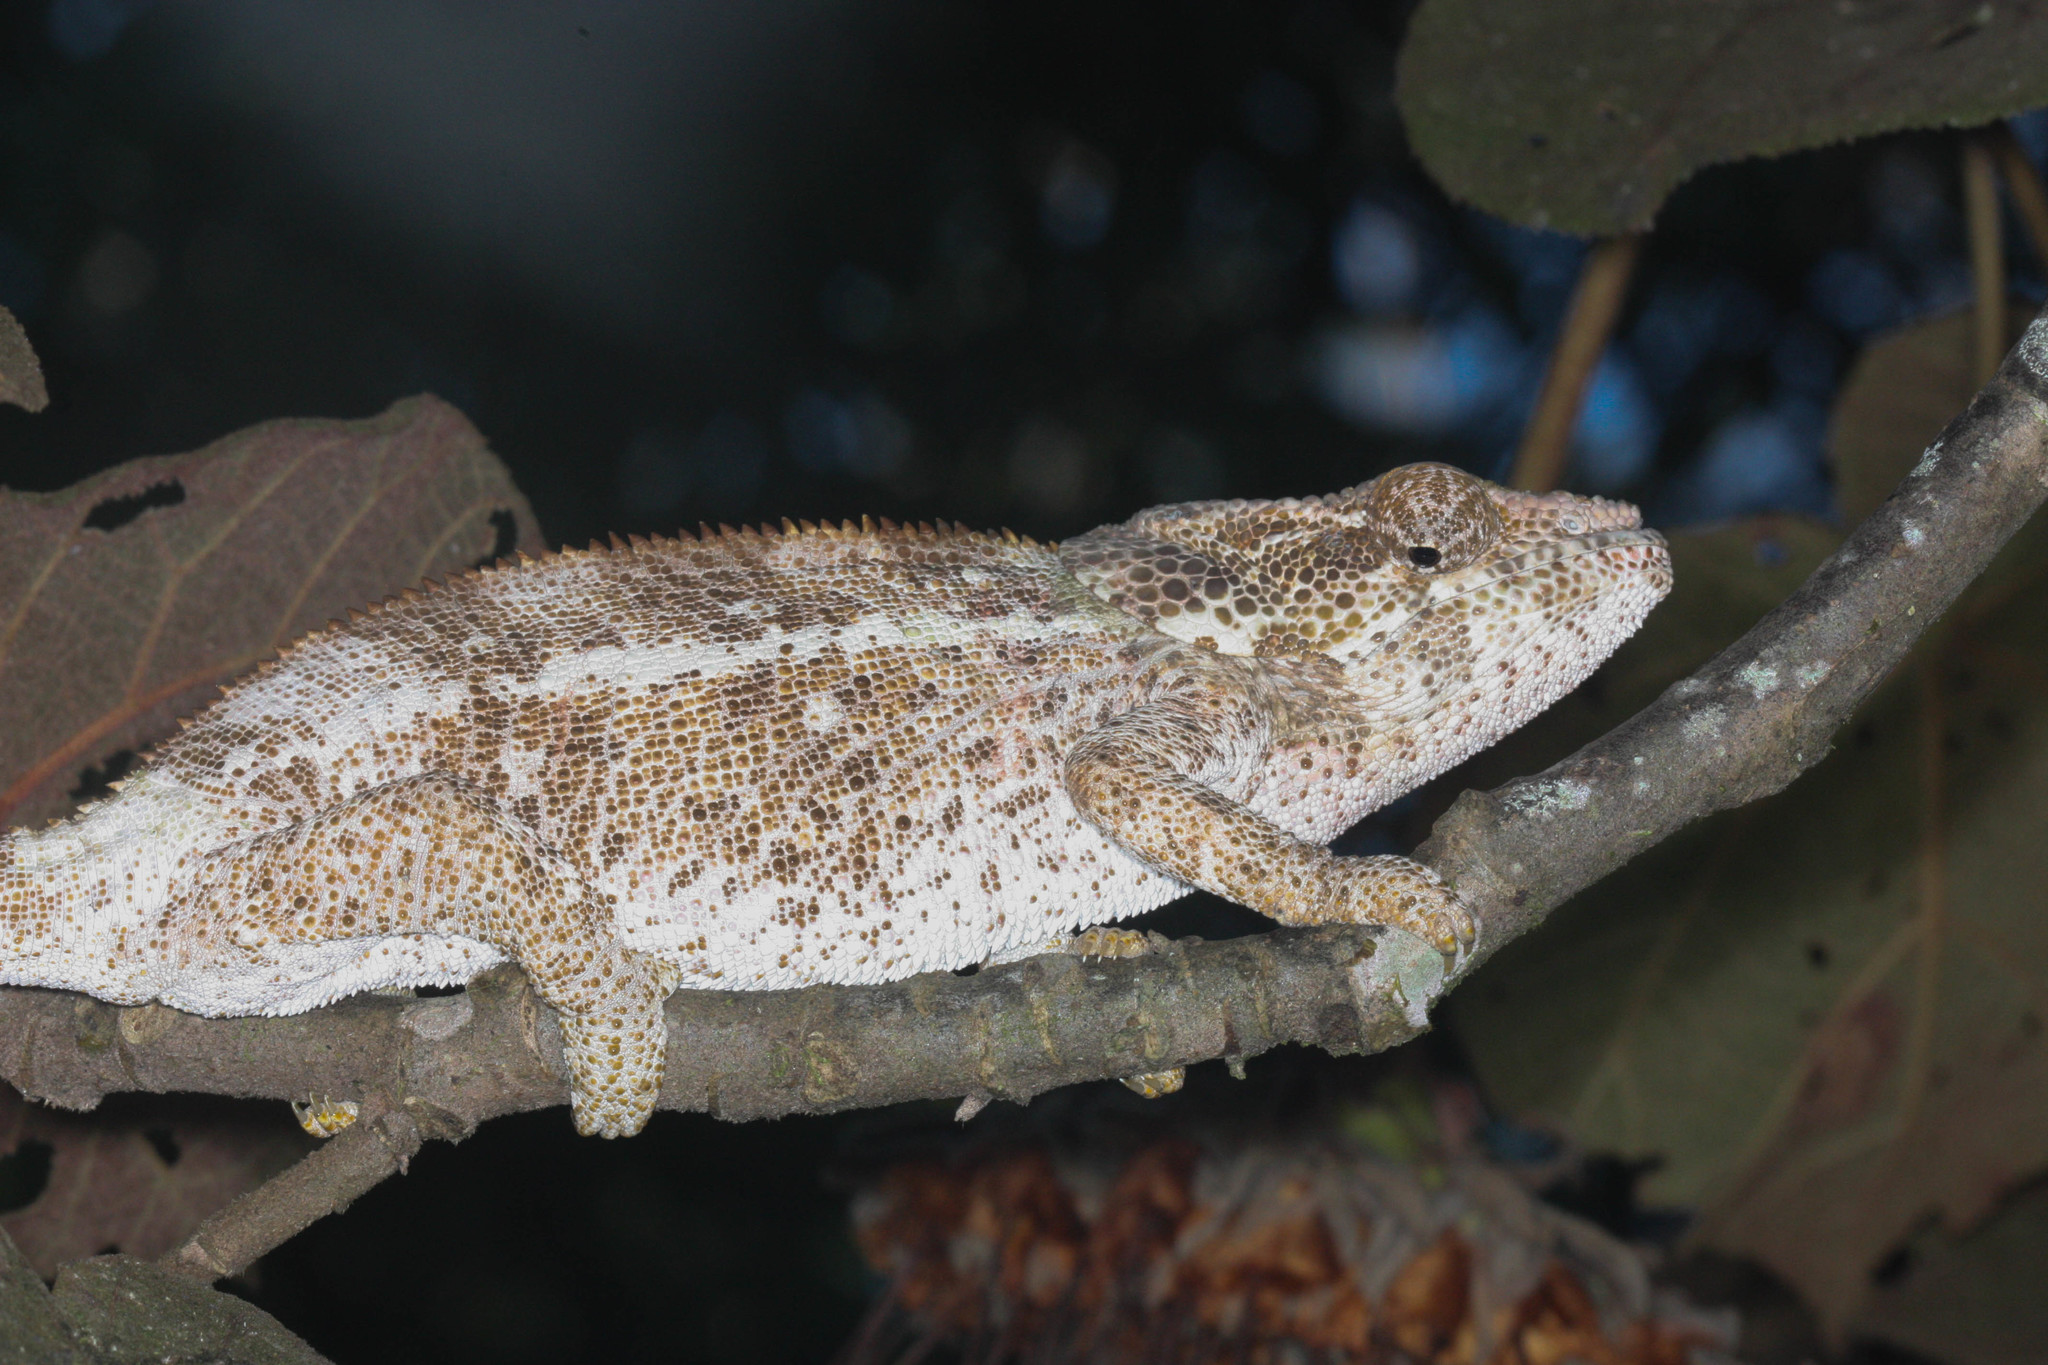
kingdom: Animalia
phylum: Chordata
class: Squamata
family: Chamaeleonidae
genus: Calumma
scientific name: Calumma brevicorne
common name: Short-horned chameleon
